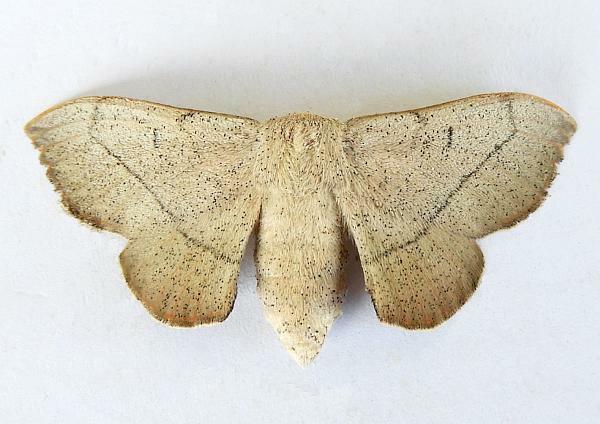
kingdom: Animalia
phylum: Arthropoda
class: Insecta
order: Lepidoptera
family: Mimallonidae
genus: Cicinnus
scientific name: Cicinnus melsheimeri
